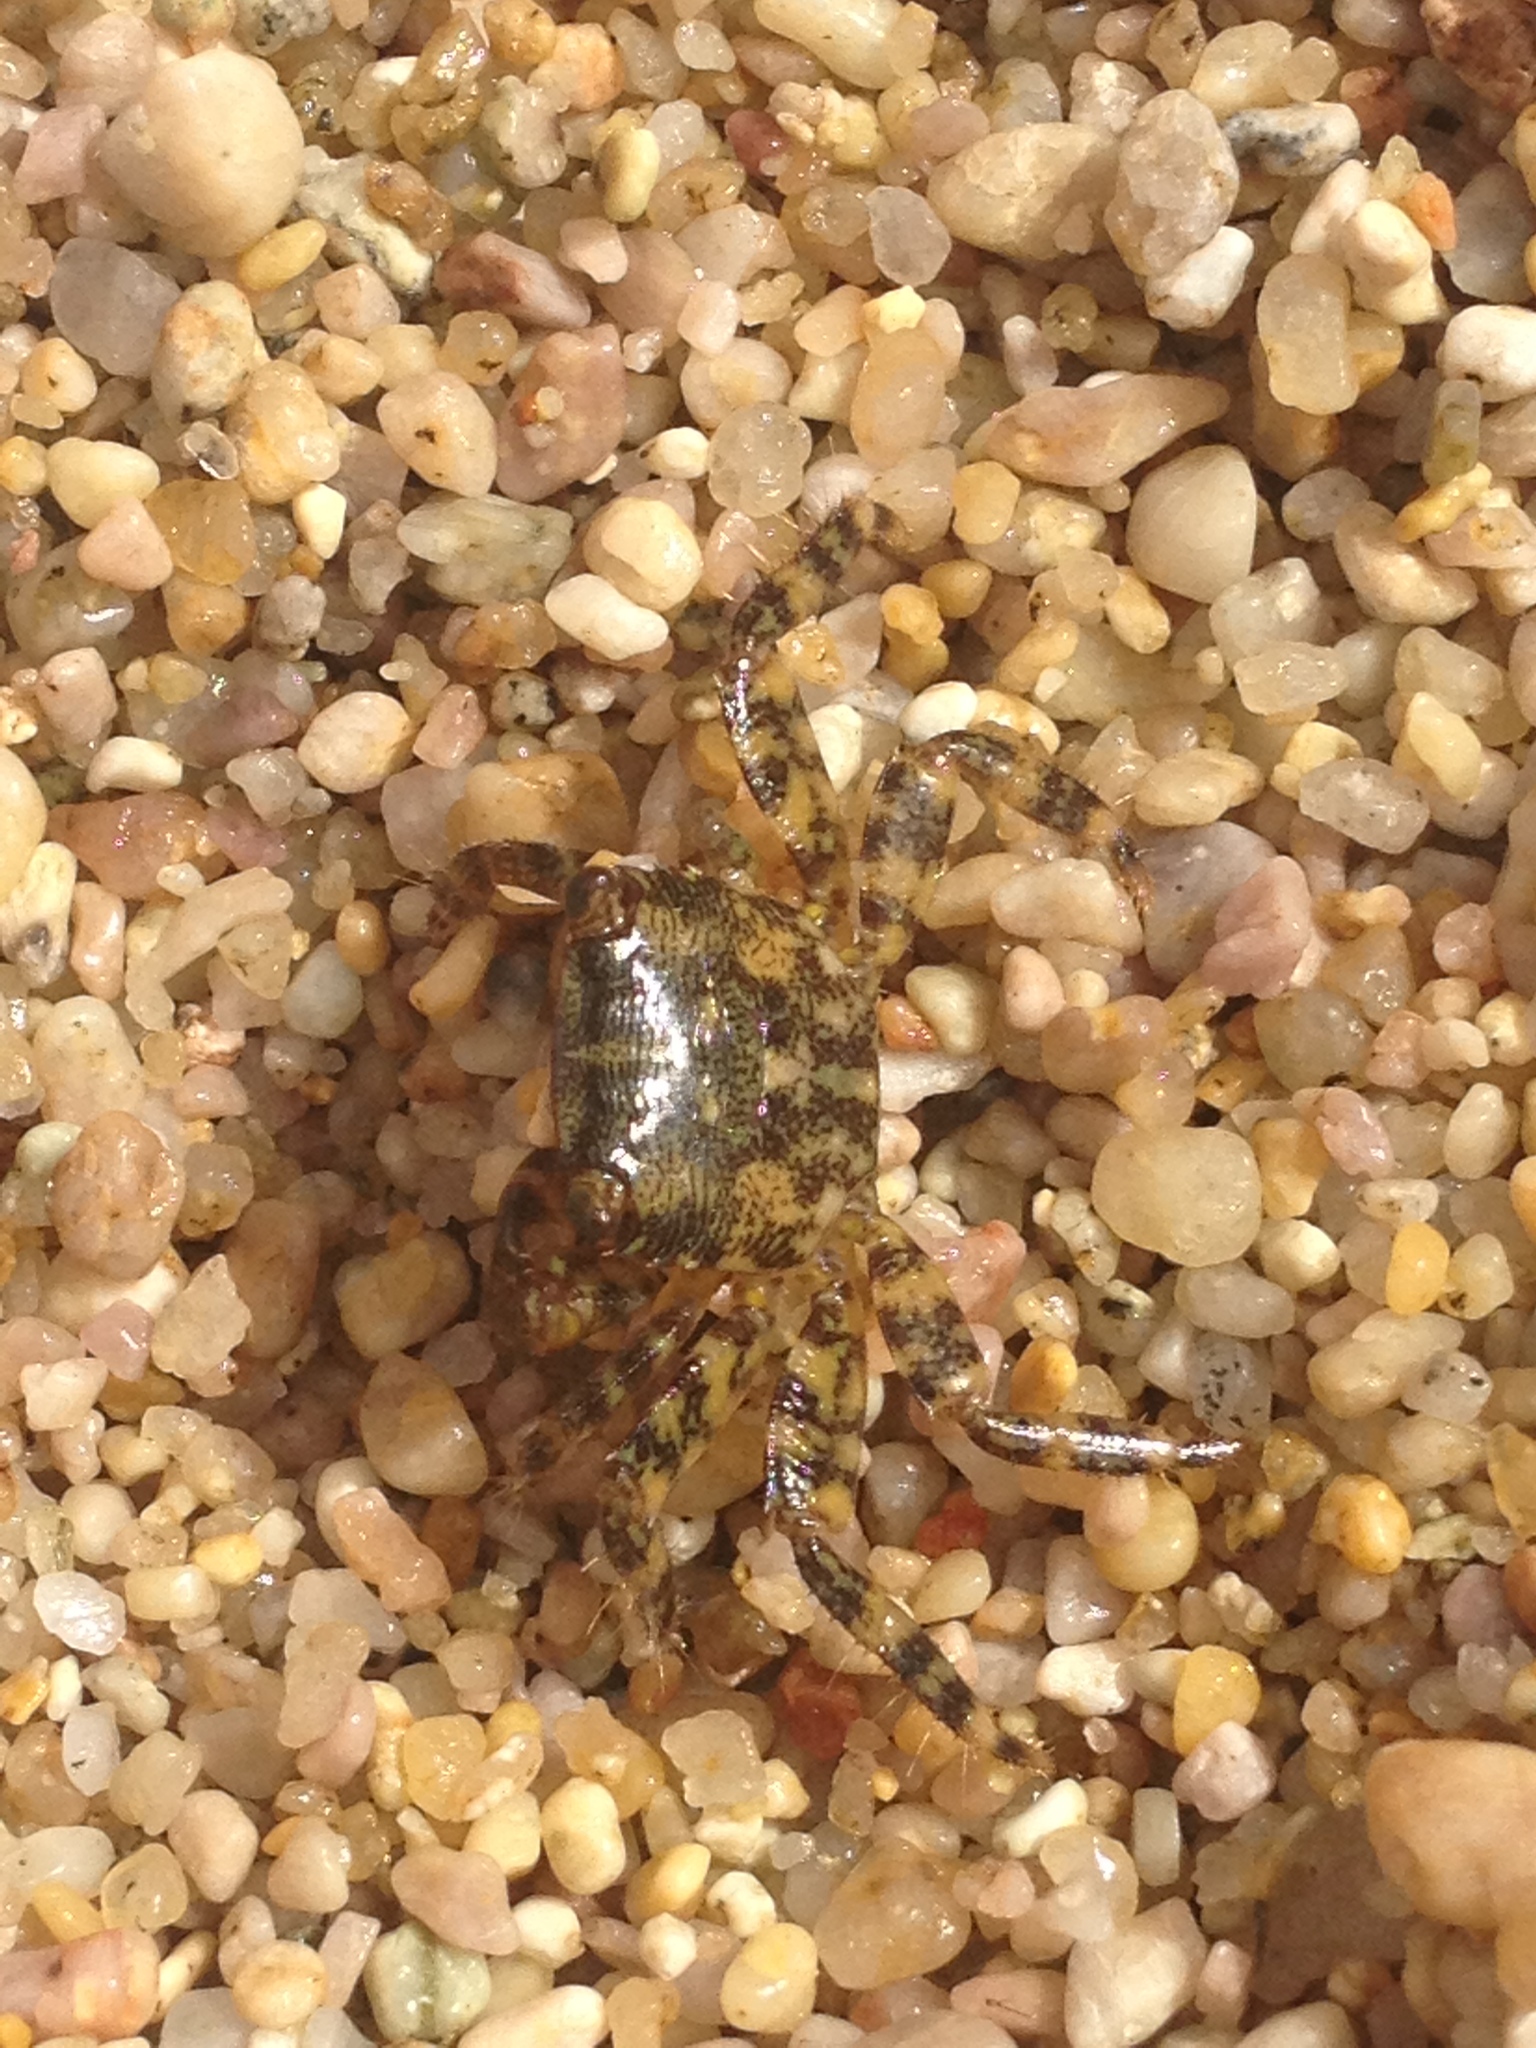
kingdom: Animalia
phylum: Arthropoda
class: Malacostraca
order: Decapoda
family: Grapsidae
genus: Pachygrapsus
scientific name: Pachygrapsus marmoratus
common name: Marbled rock crab
